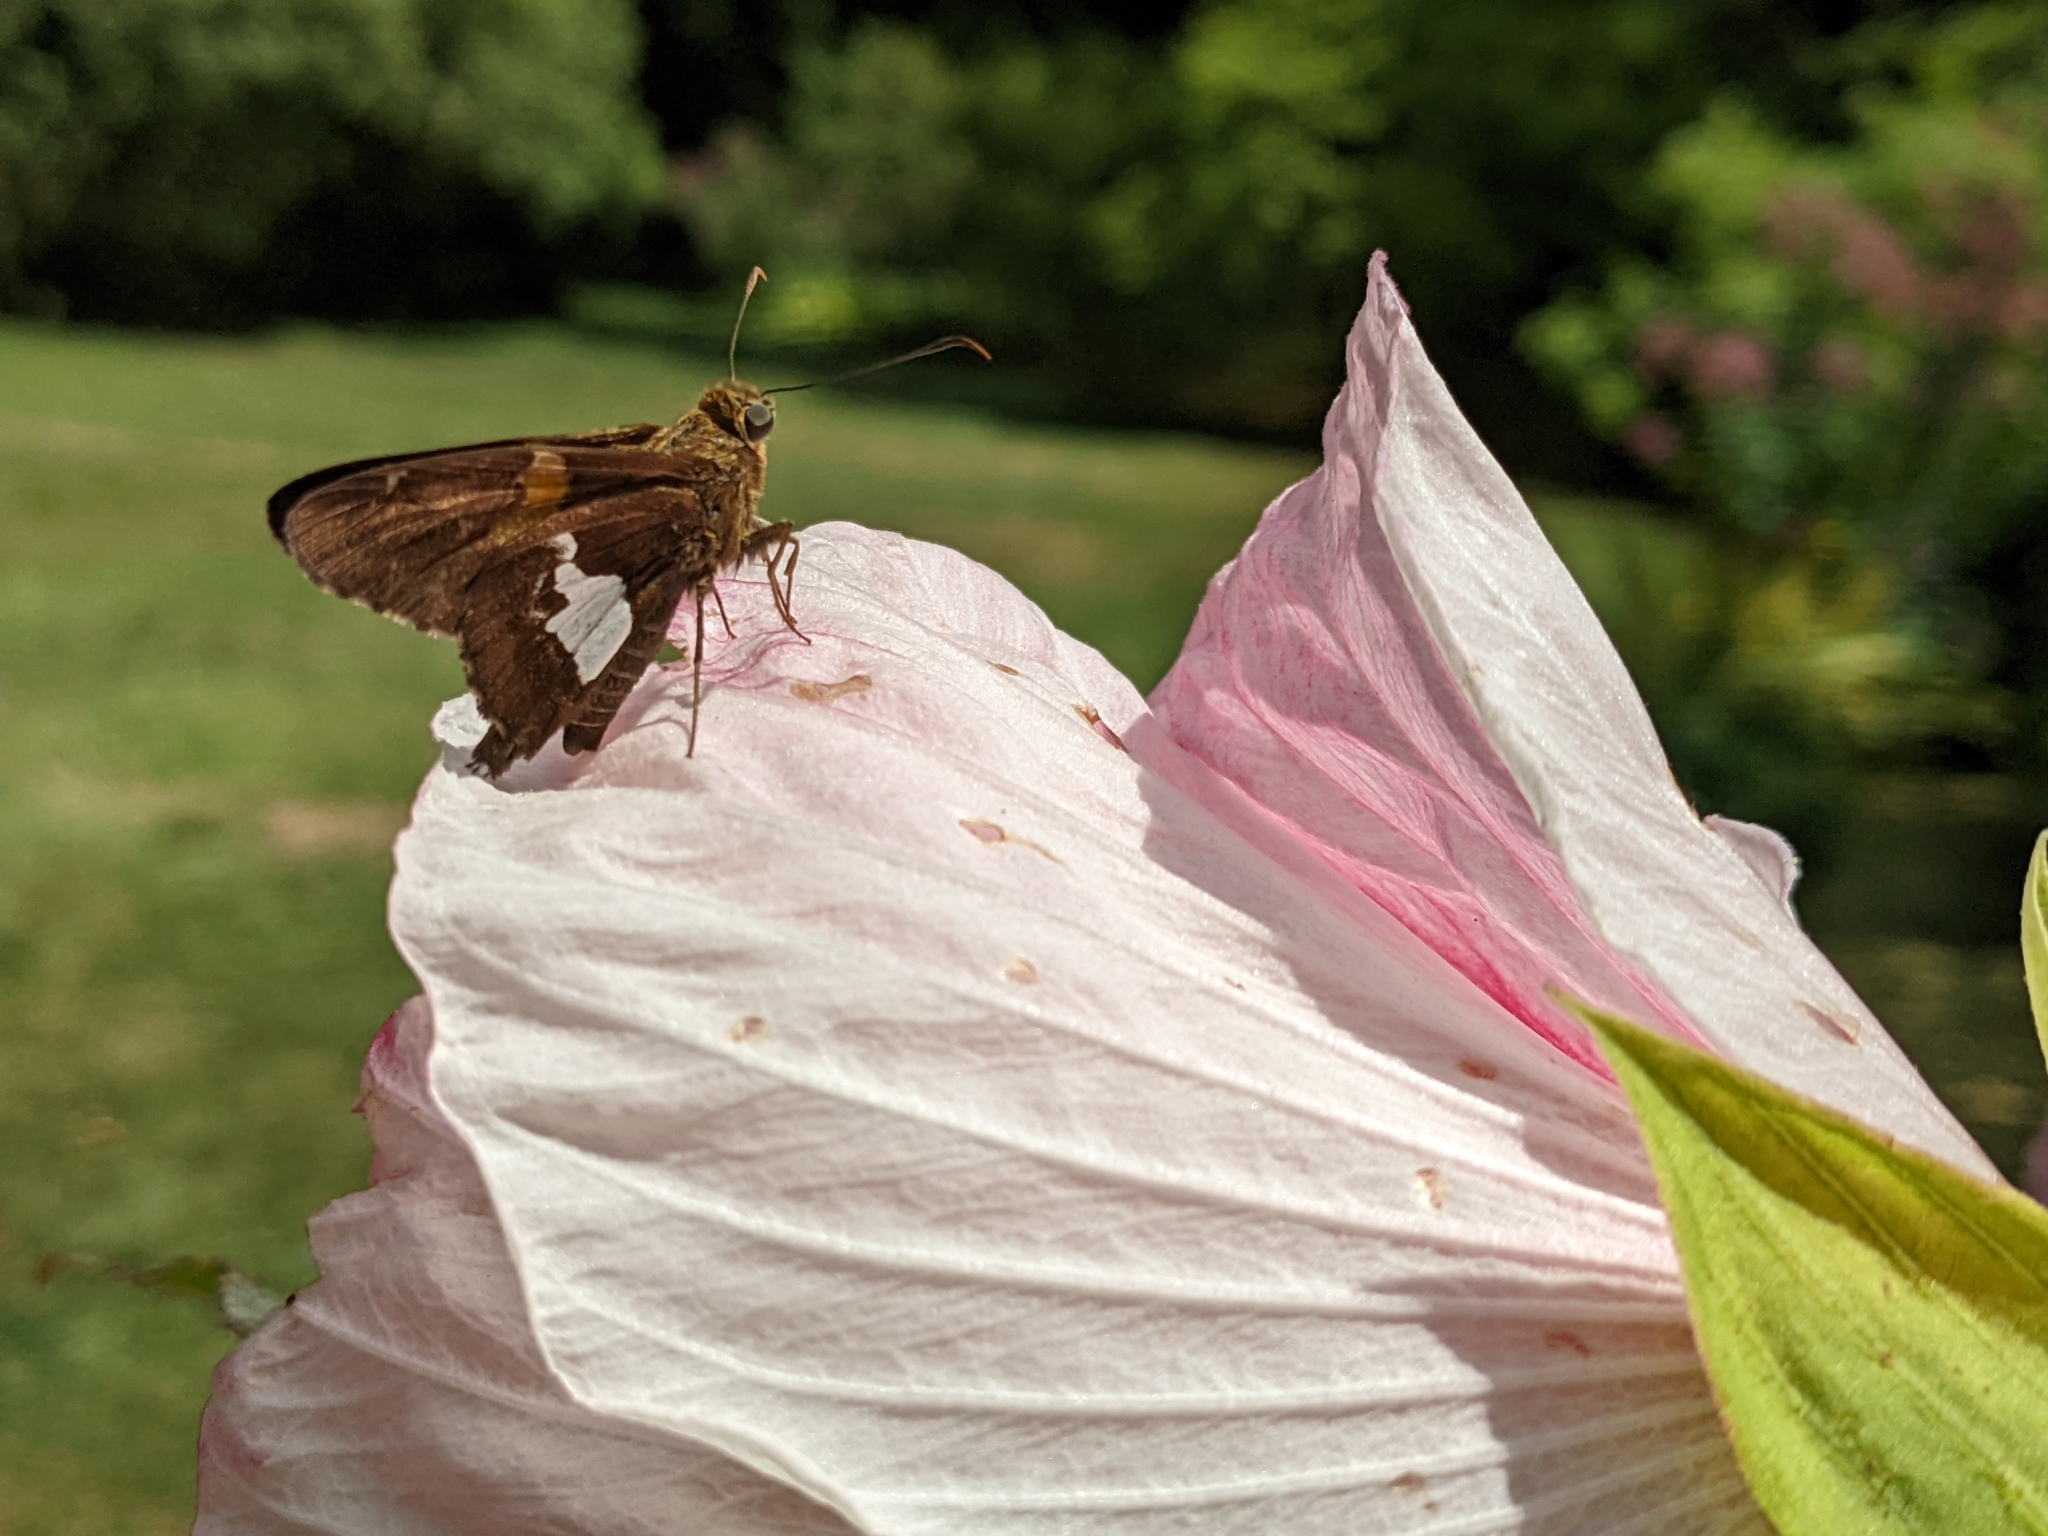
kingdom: Animalia
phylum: Arthropoda
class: Insecta
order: Lepidoptera
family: Hesperiidae
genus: Epargyreus
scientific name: Epargyreus clarus
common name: Silver-spotted skipper
